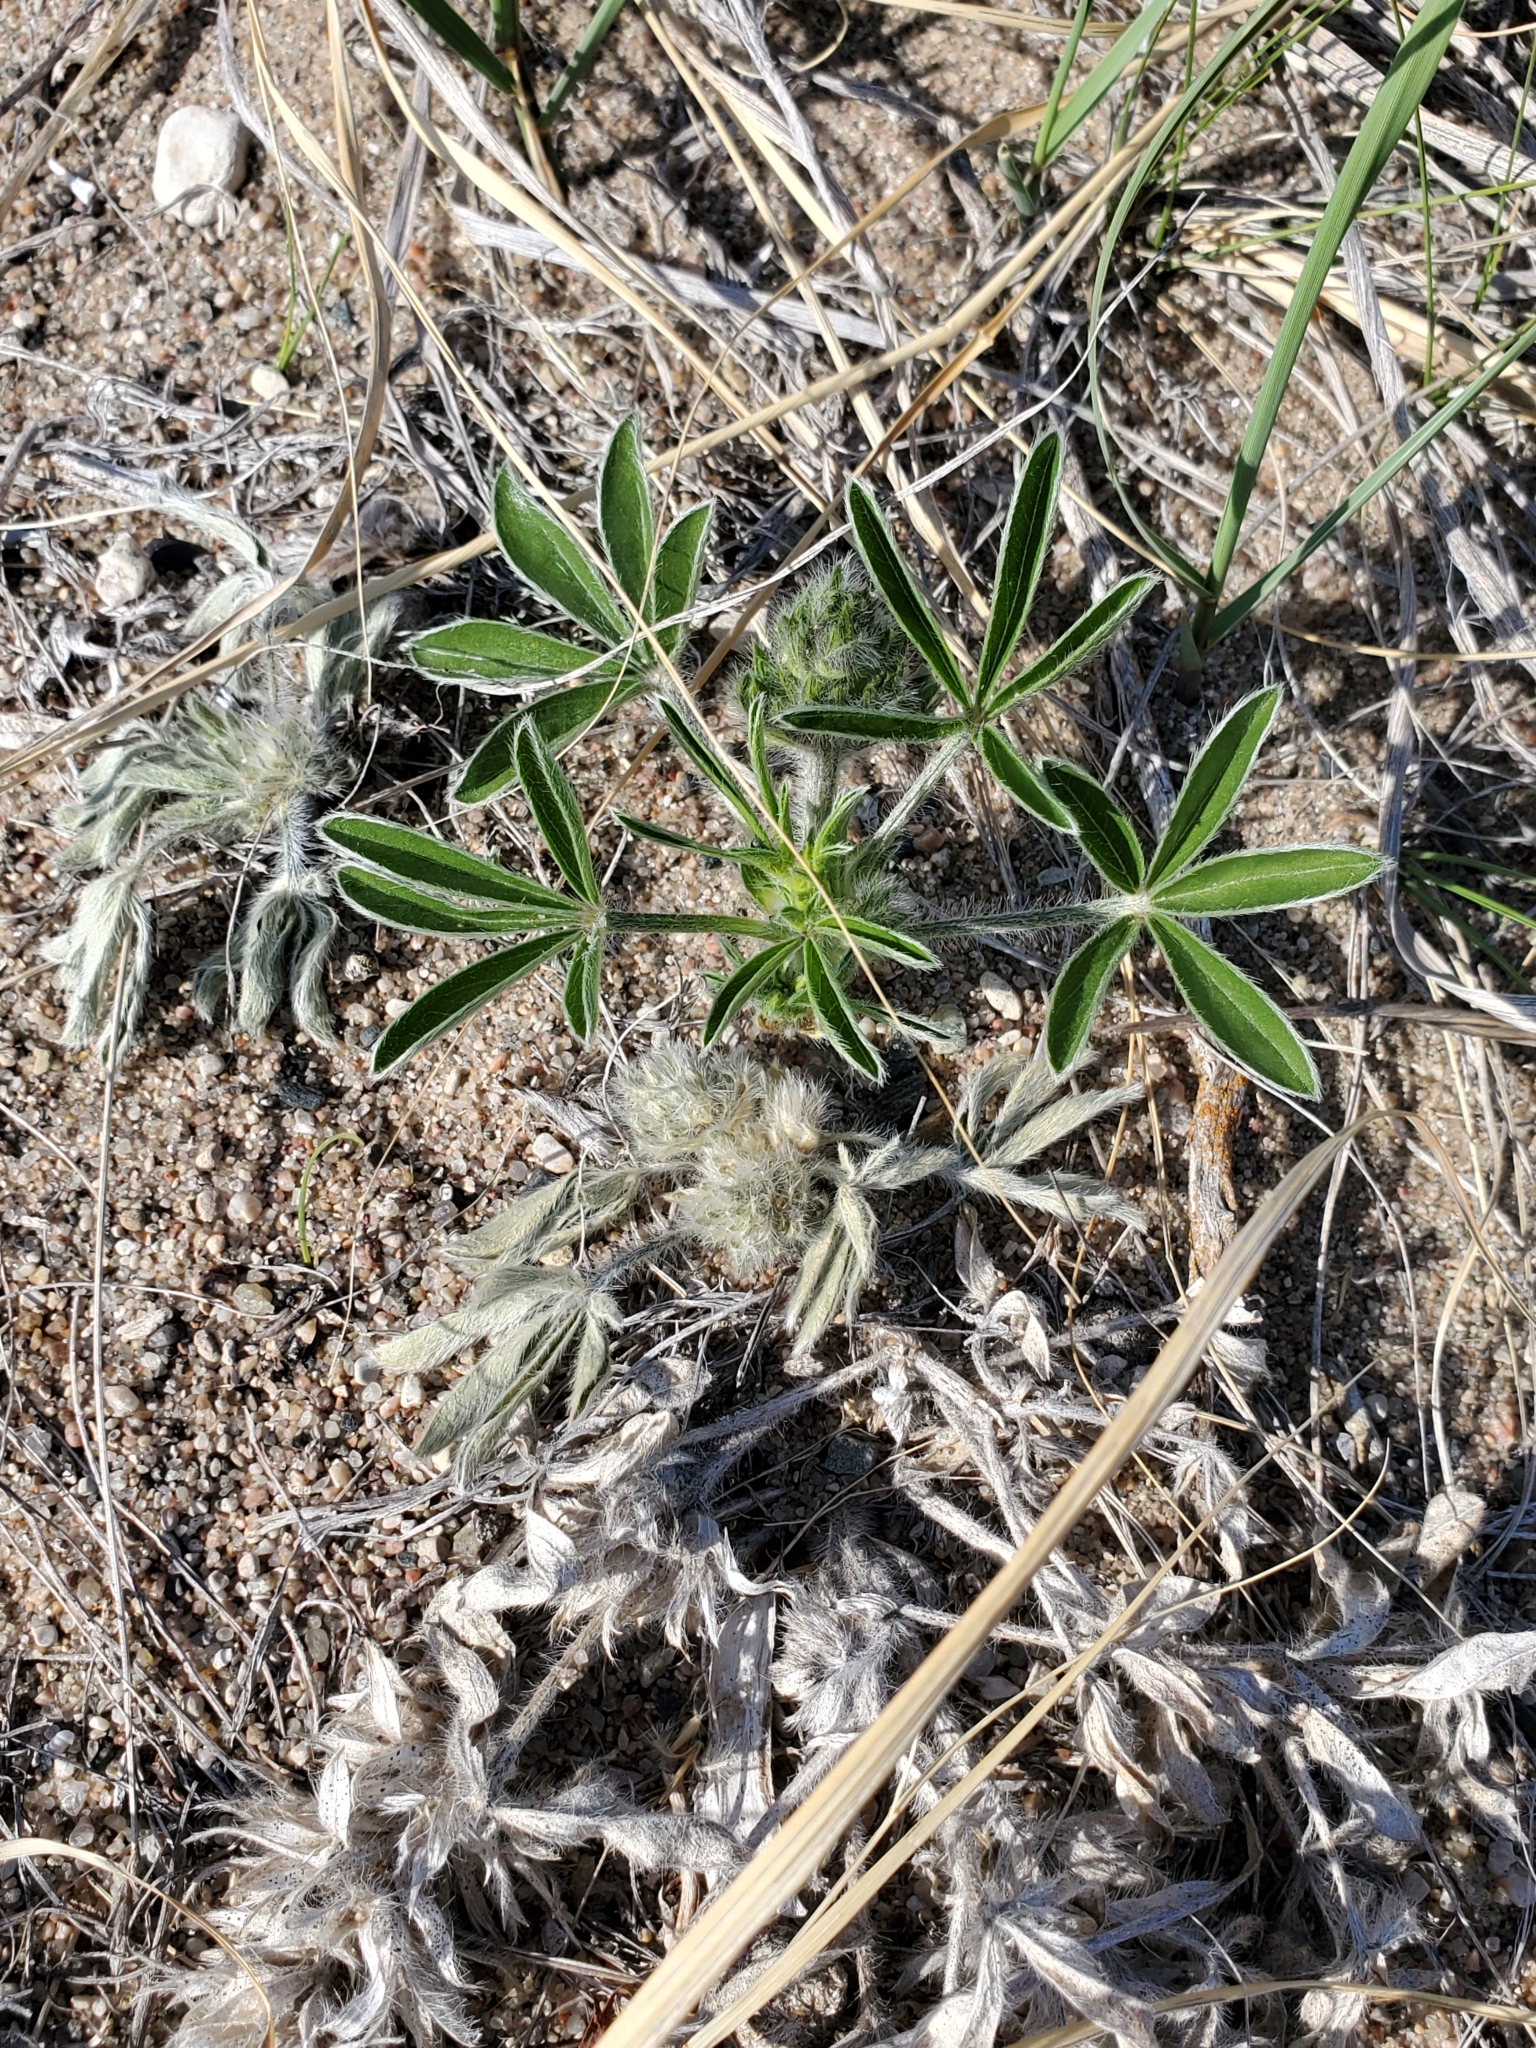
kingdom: Plantae
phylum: Tracheophyta
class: Magnoliopsida
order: Fabales
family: Fabaceae
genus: Pediomelum
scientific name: Pediomelum esculentum
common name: Indian-turnip
